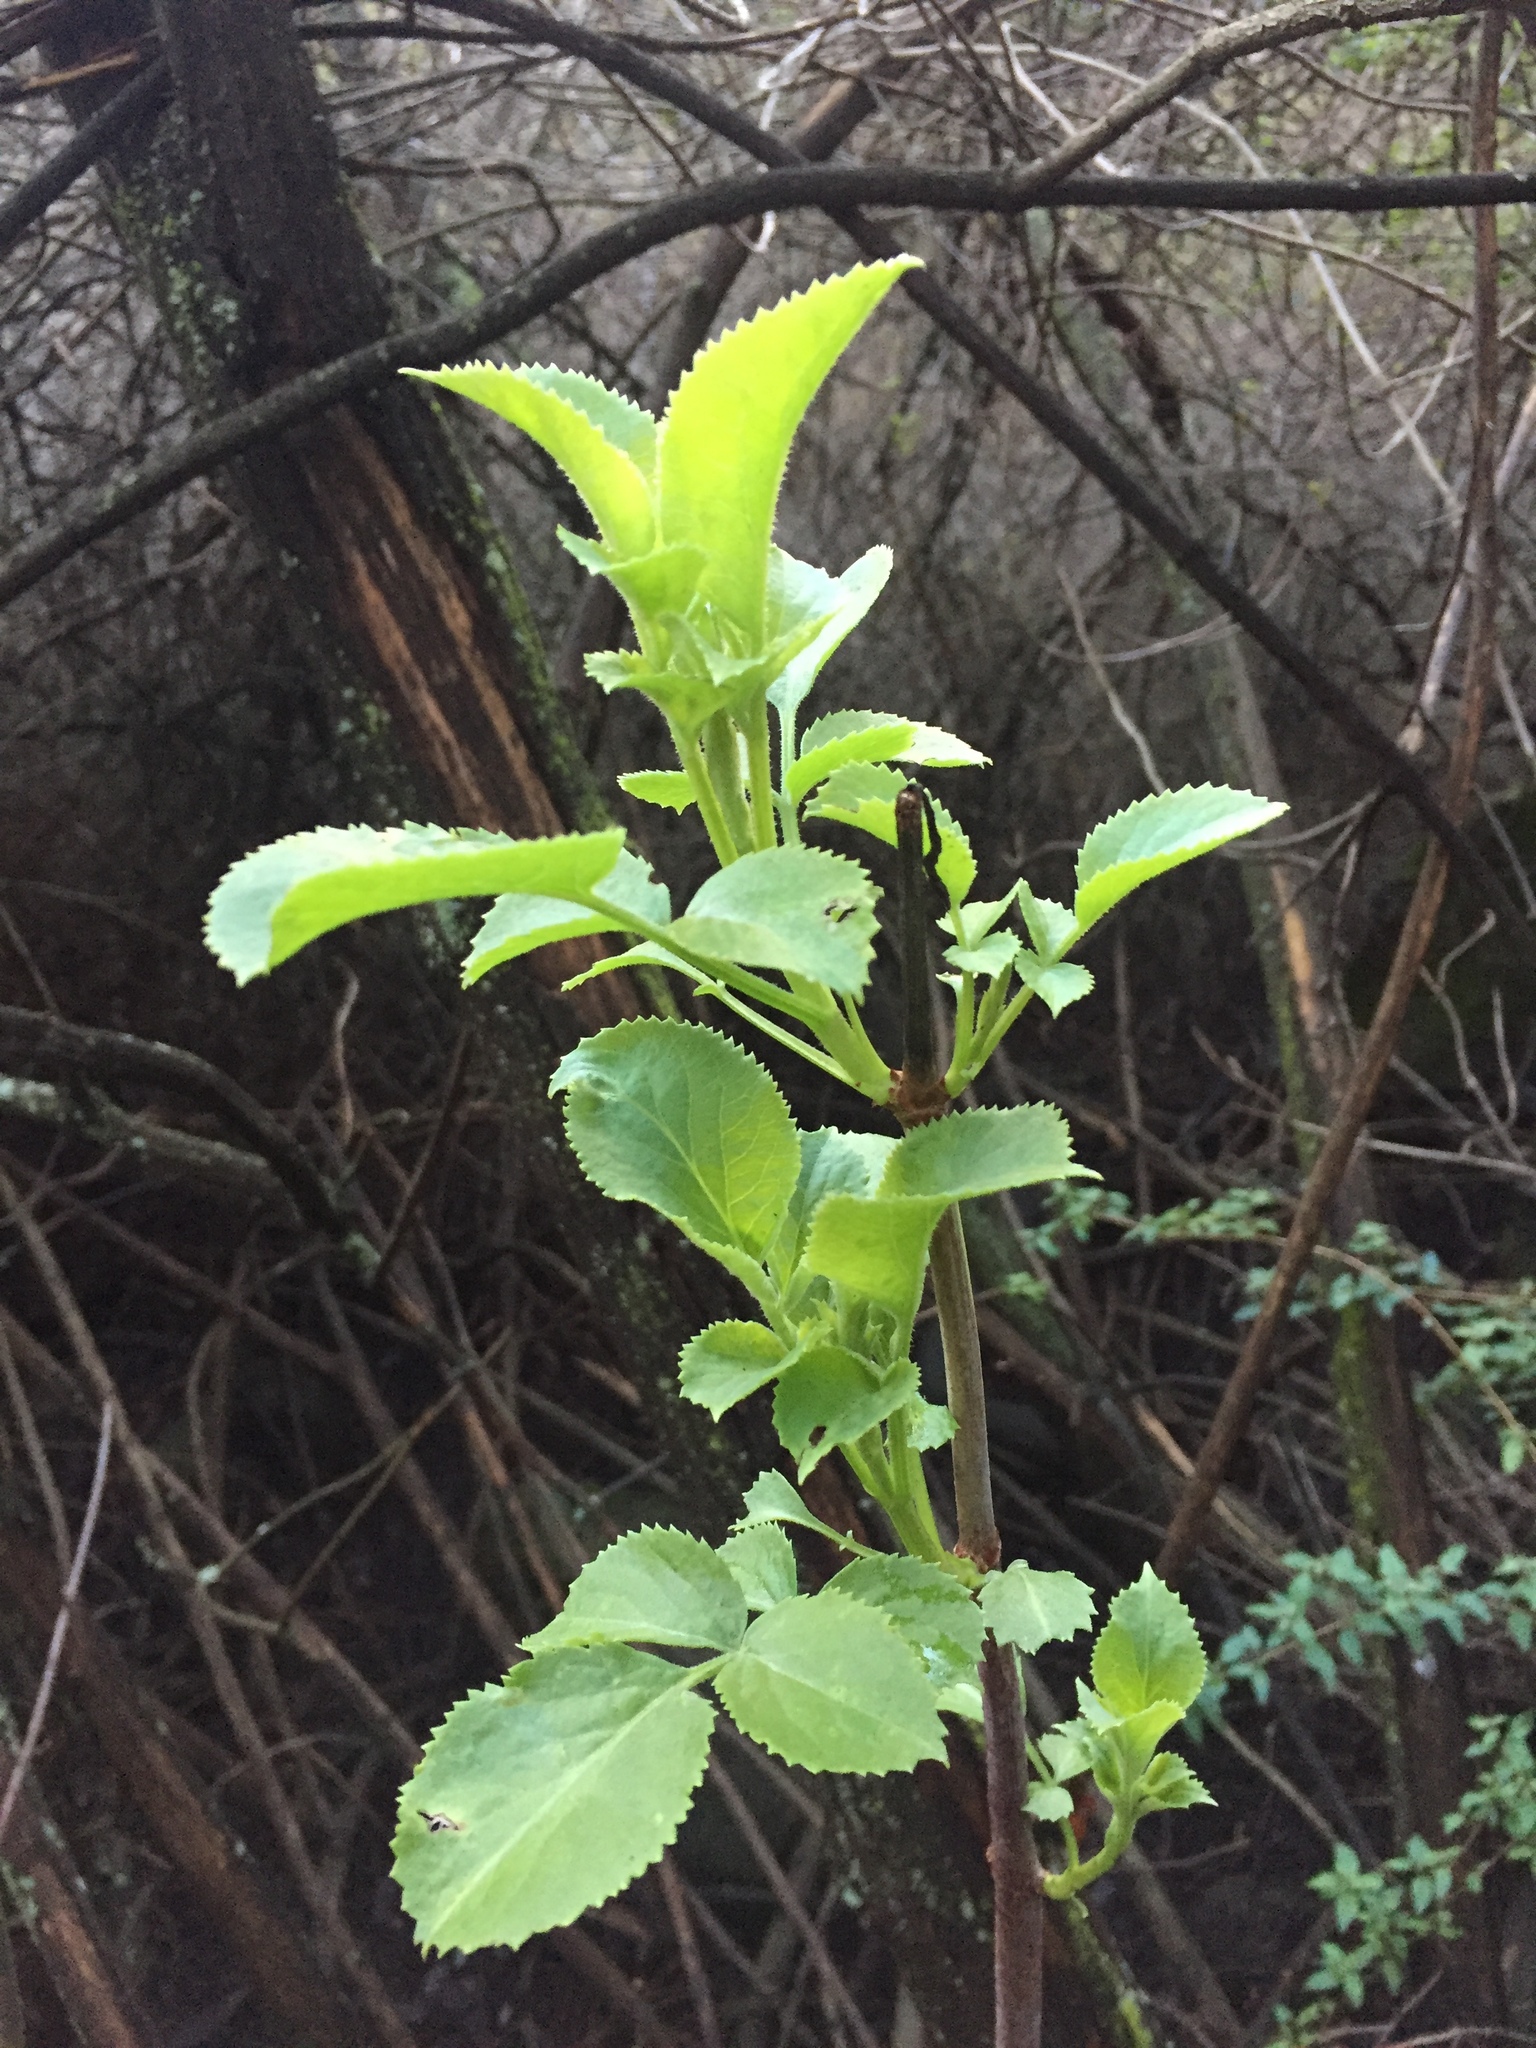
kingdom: Plantae
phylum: Tracheophyta
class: Magnoliopsida
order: Dipsacales
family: Viburnaceae
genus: Sambucus
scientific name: Sambucus cerulea
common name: Blue elder
